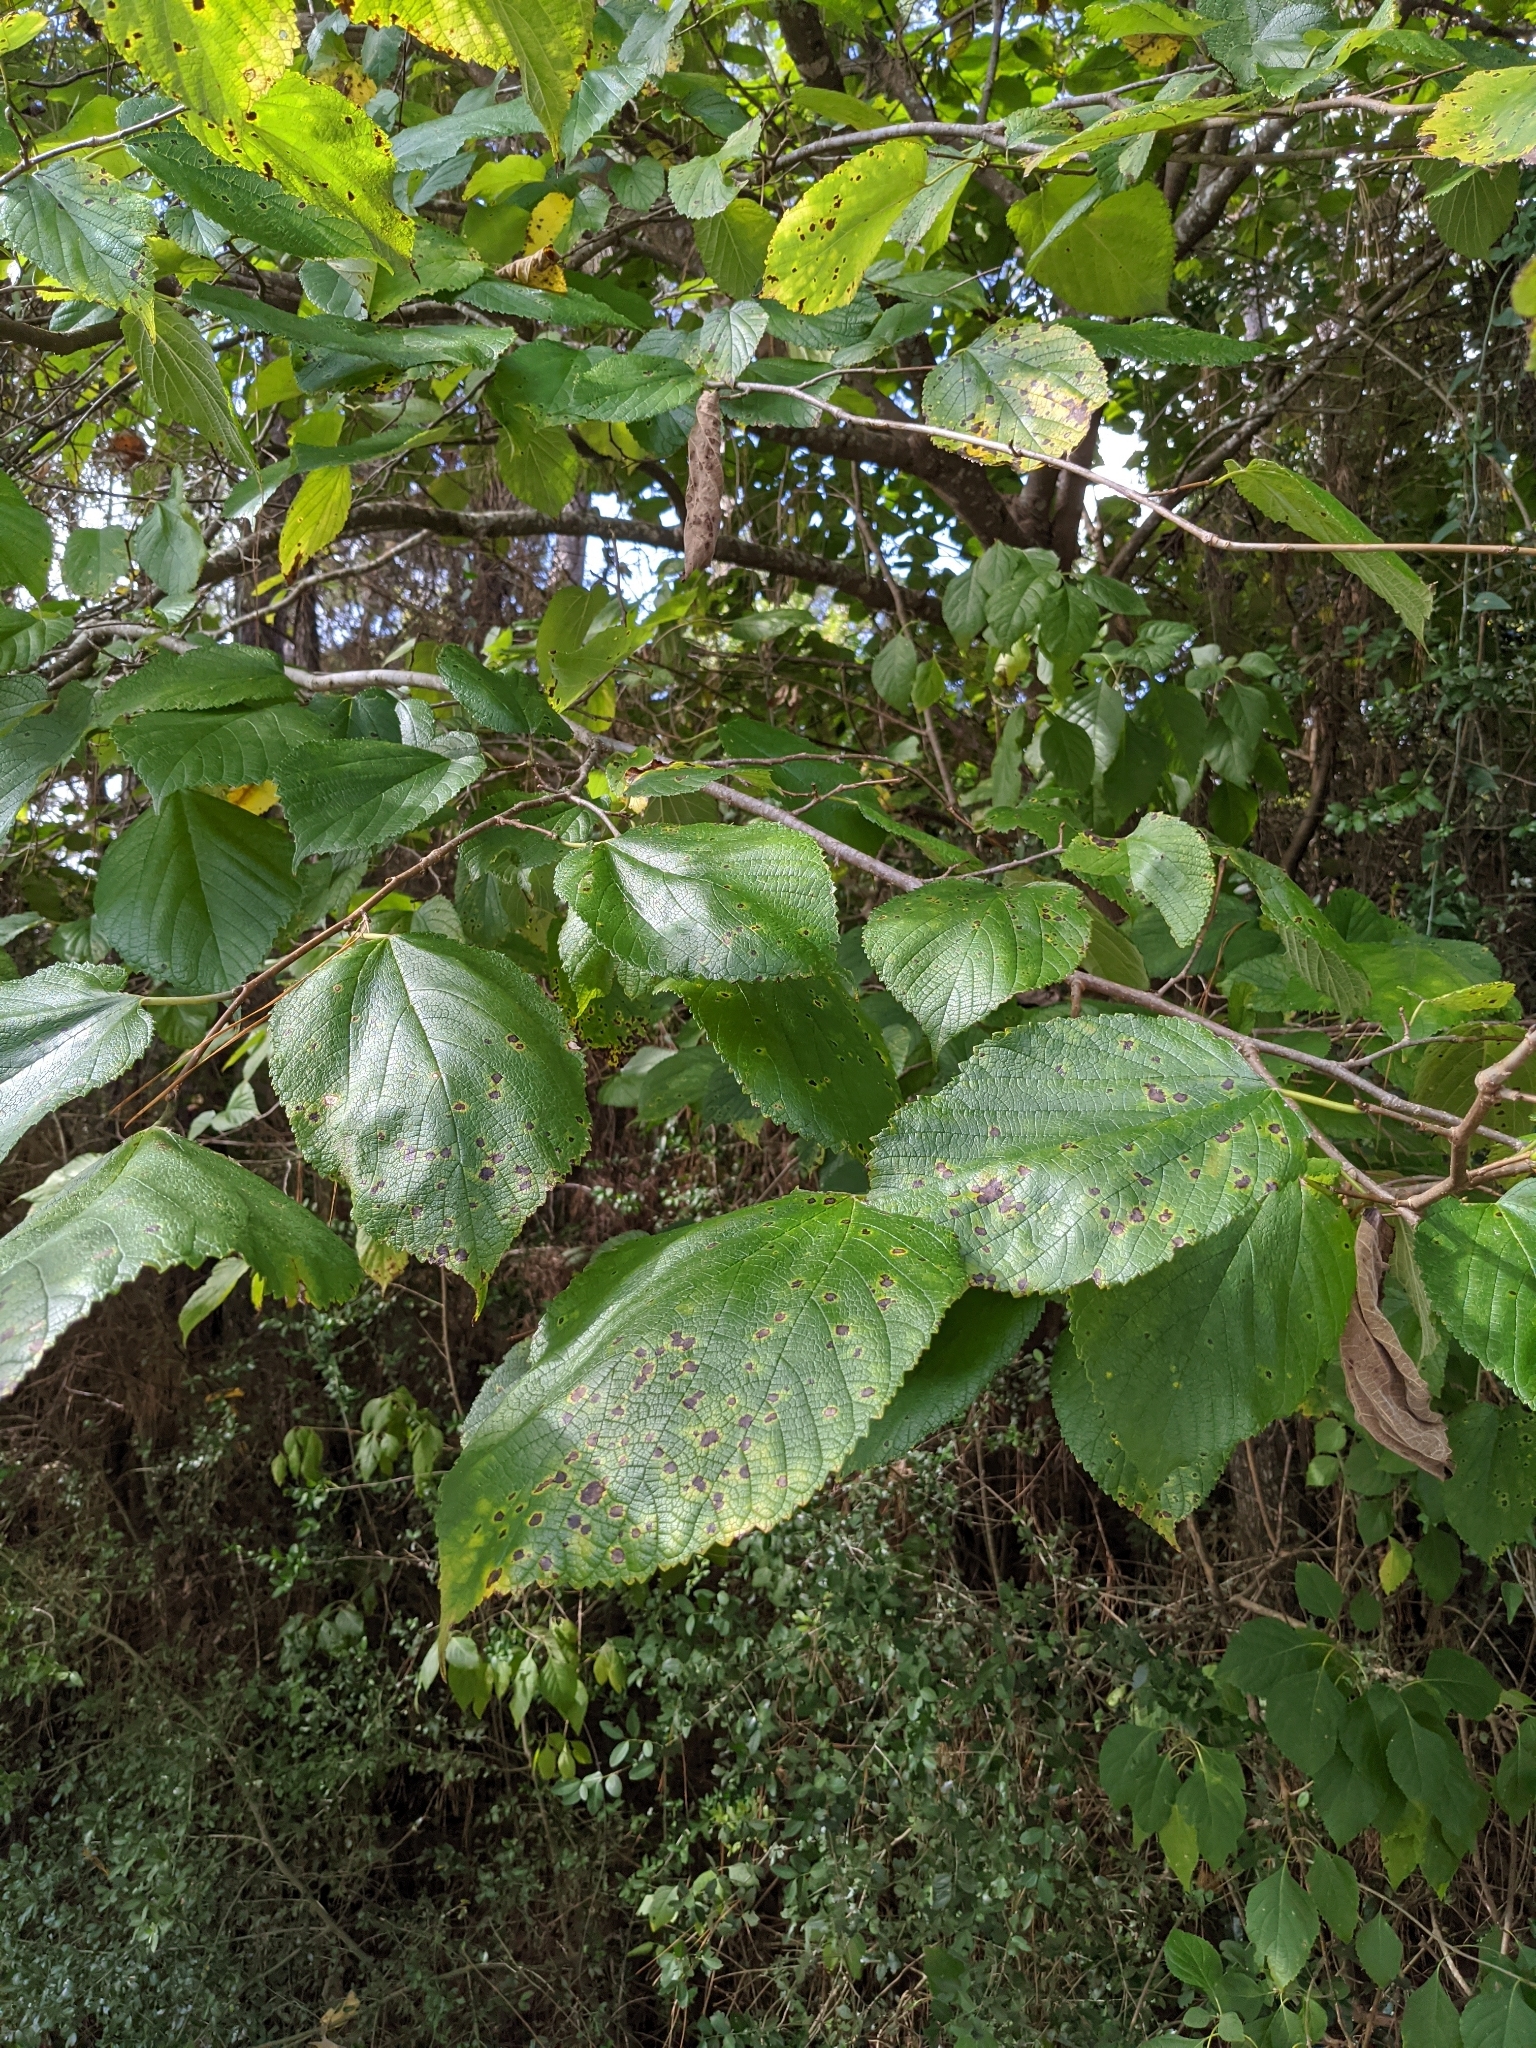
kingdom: Plantae
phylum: Tracheophyta
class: Magnoliopsida
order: Rosales
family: Moraceae
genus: Morus
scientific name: Morus rubra
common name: Red mulberry
